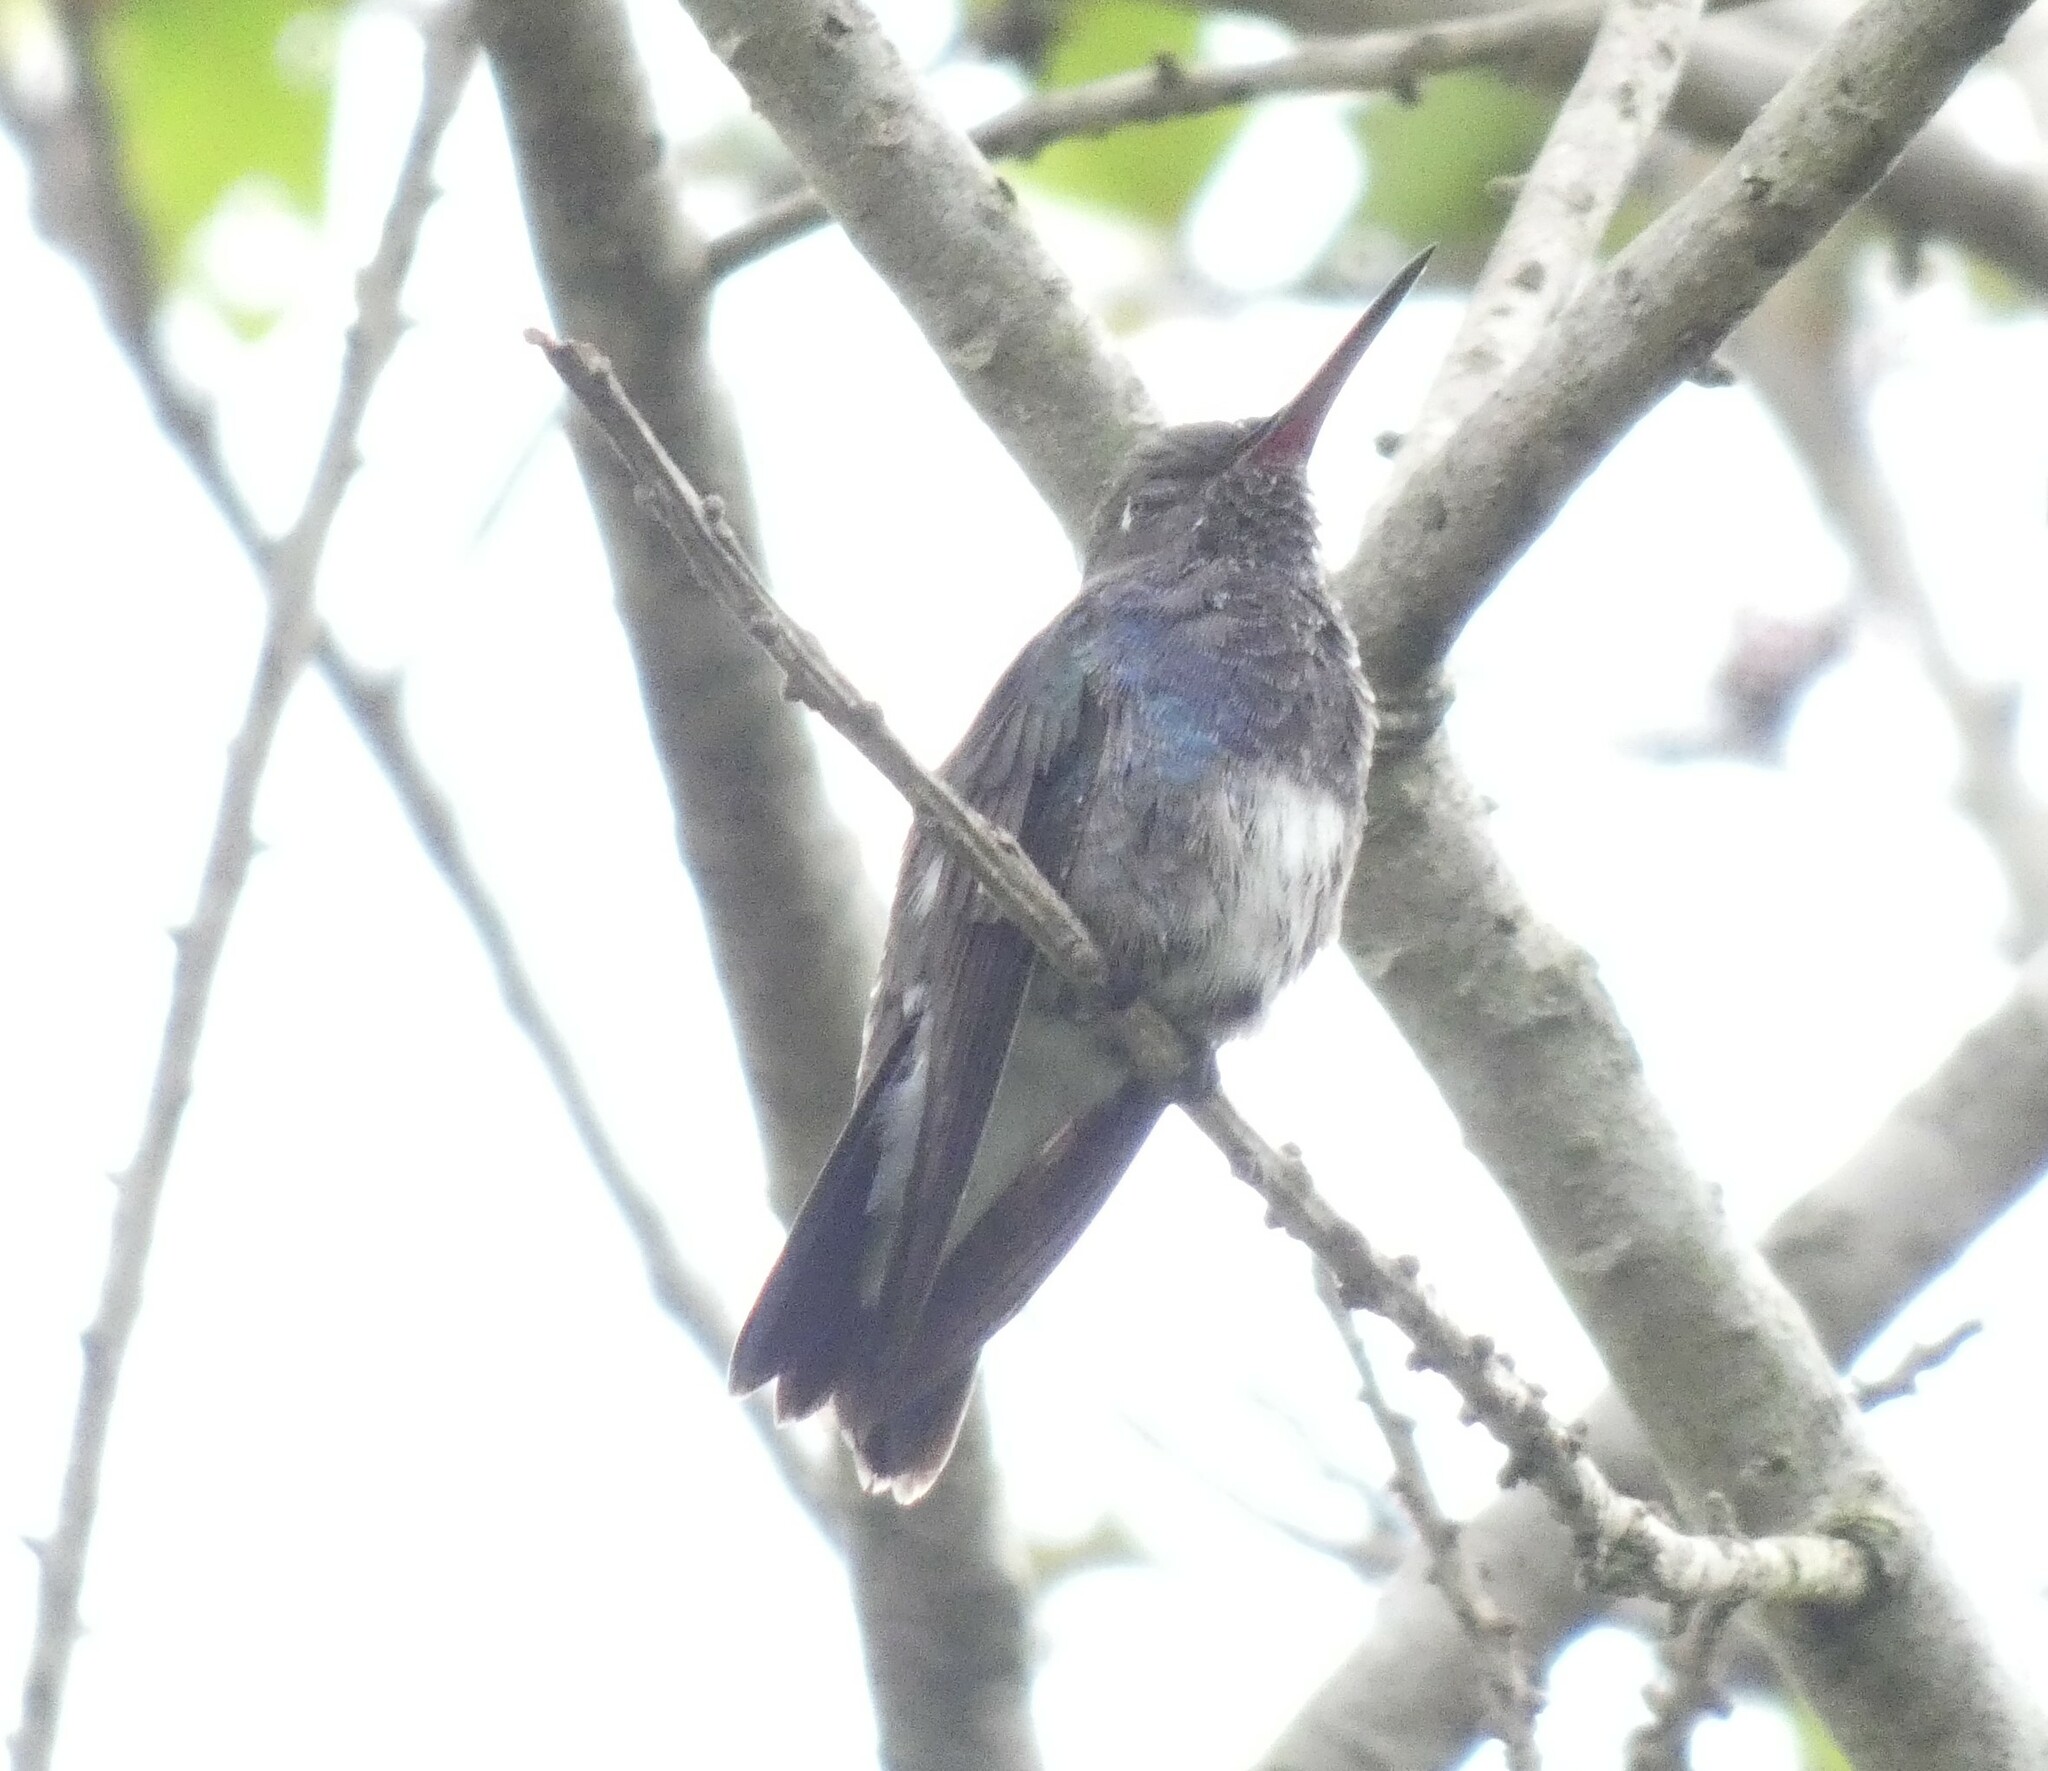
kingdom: Animalia
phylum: Chordata
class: Aves
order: Apodiformes
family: Trochilidae
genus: Chionomesa
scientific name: Chionomesa lactea
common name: Sapphire-spangled emerald
